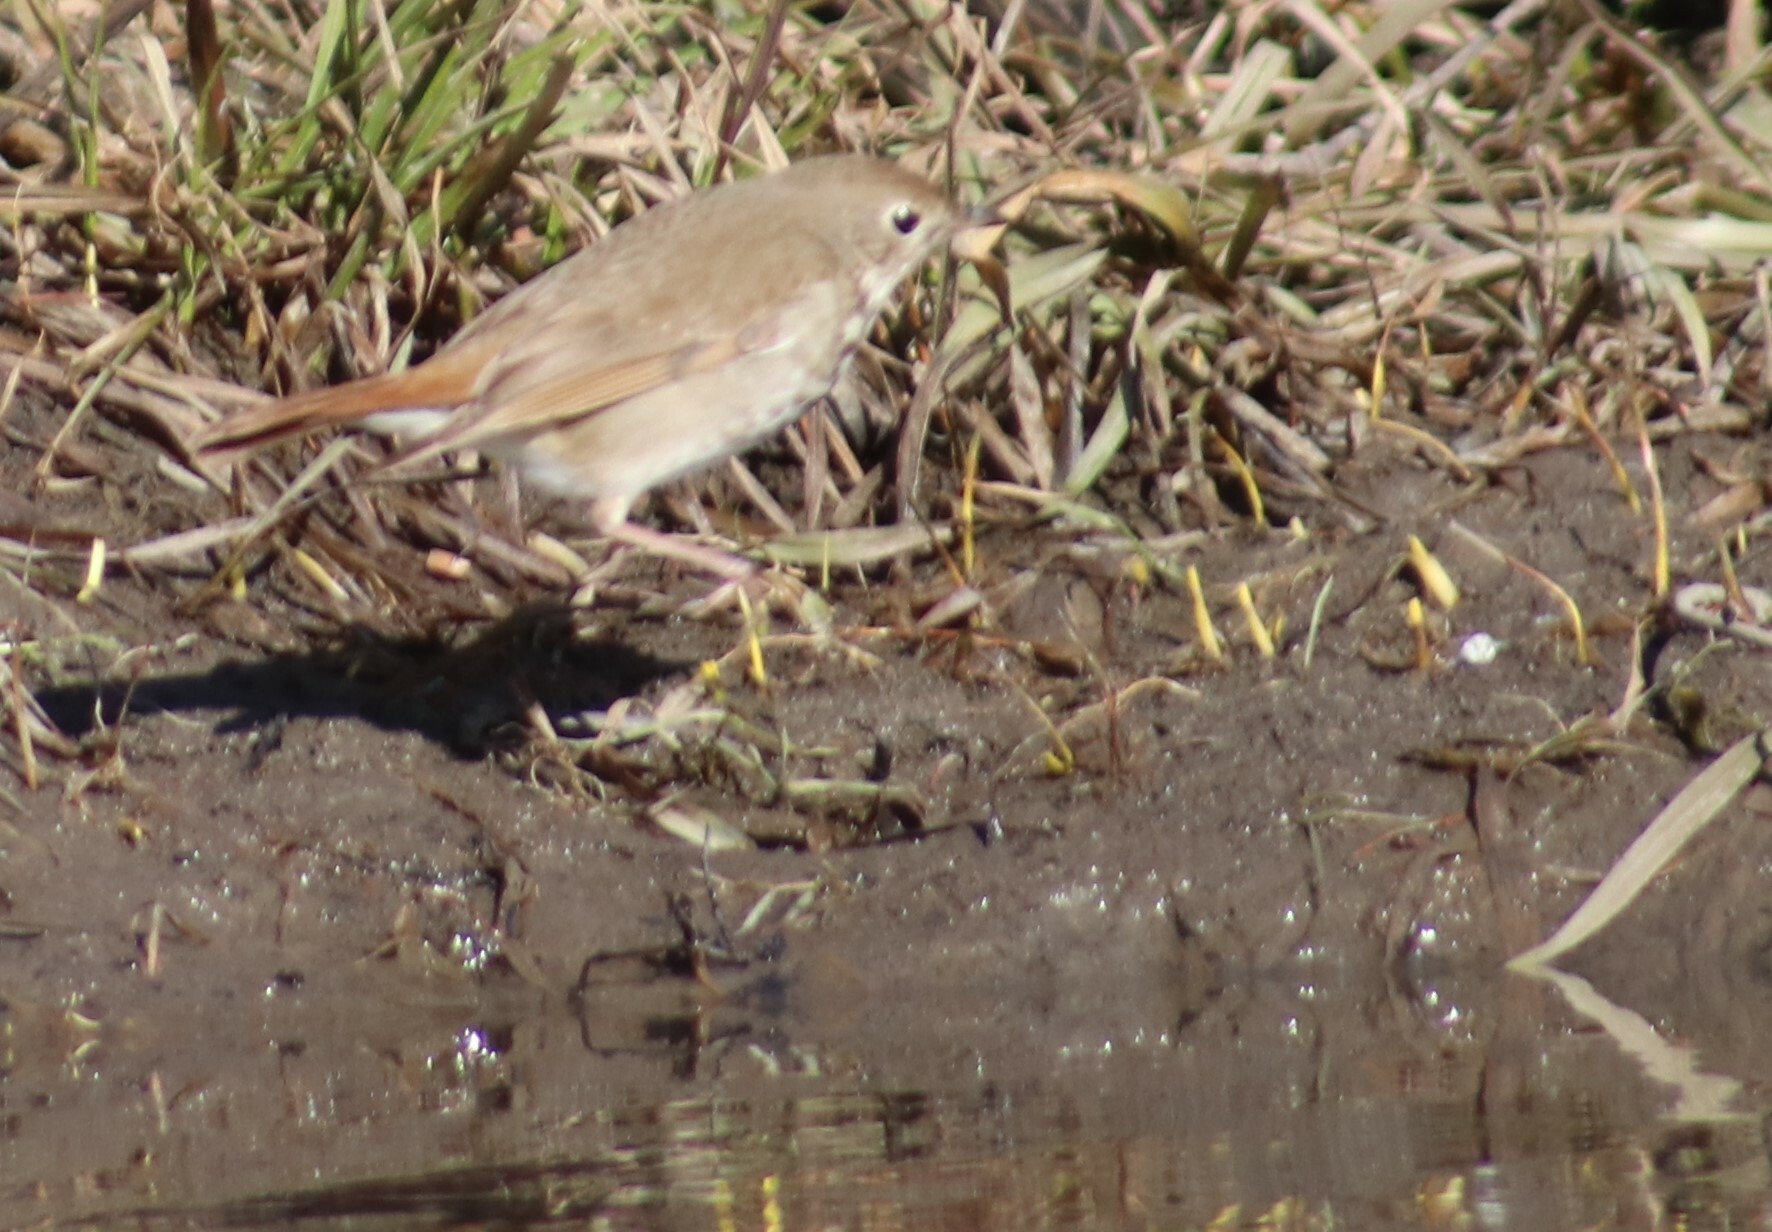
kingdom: Animalia
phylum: Chordata
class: Aves
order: Passeriformes
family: Turdidae
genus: Catharus
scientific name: Catharus guttatus
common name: Hermit thrush
